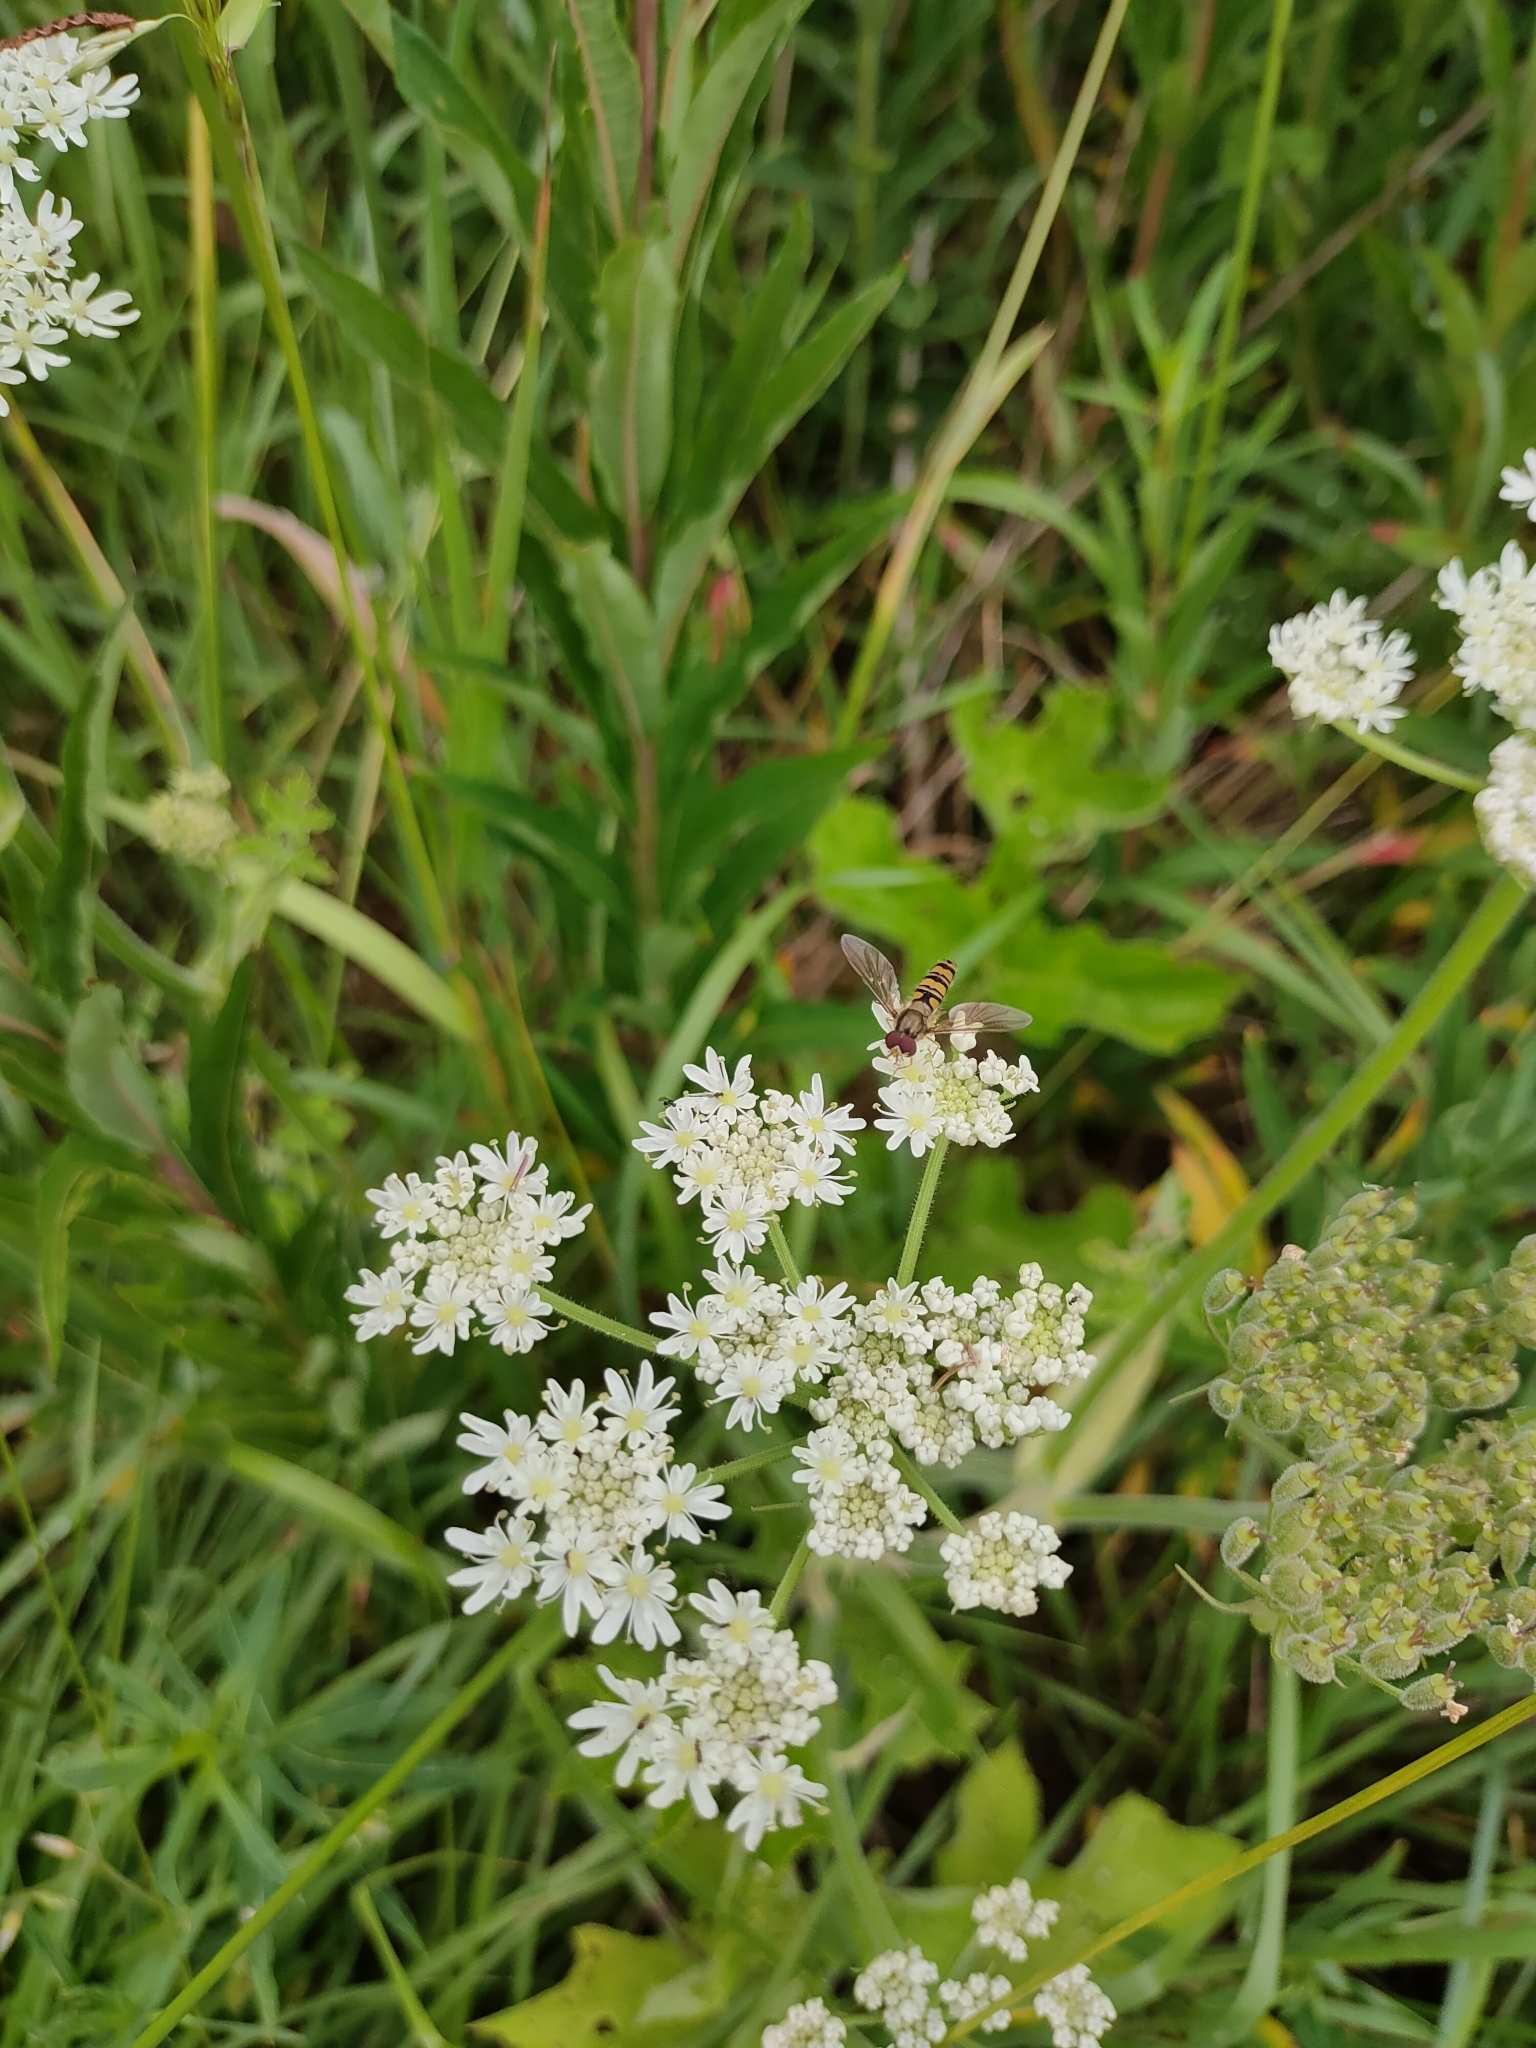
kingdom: Animalia
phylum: Arthropoda
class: Insecta
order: Diptera
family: Syrphidae
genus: Episyrphus
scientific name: Episyrphus balteatus
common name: Marmalade hoverfly
